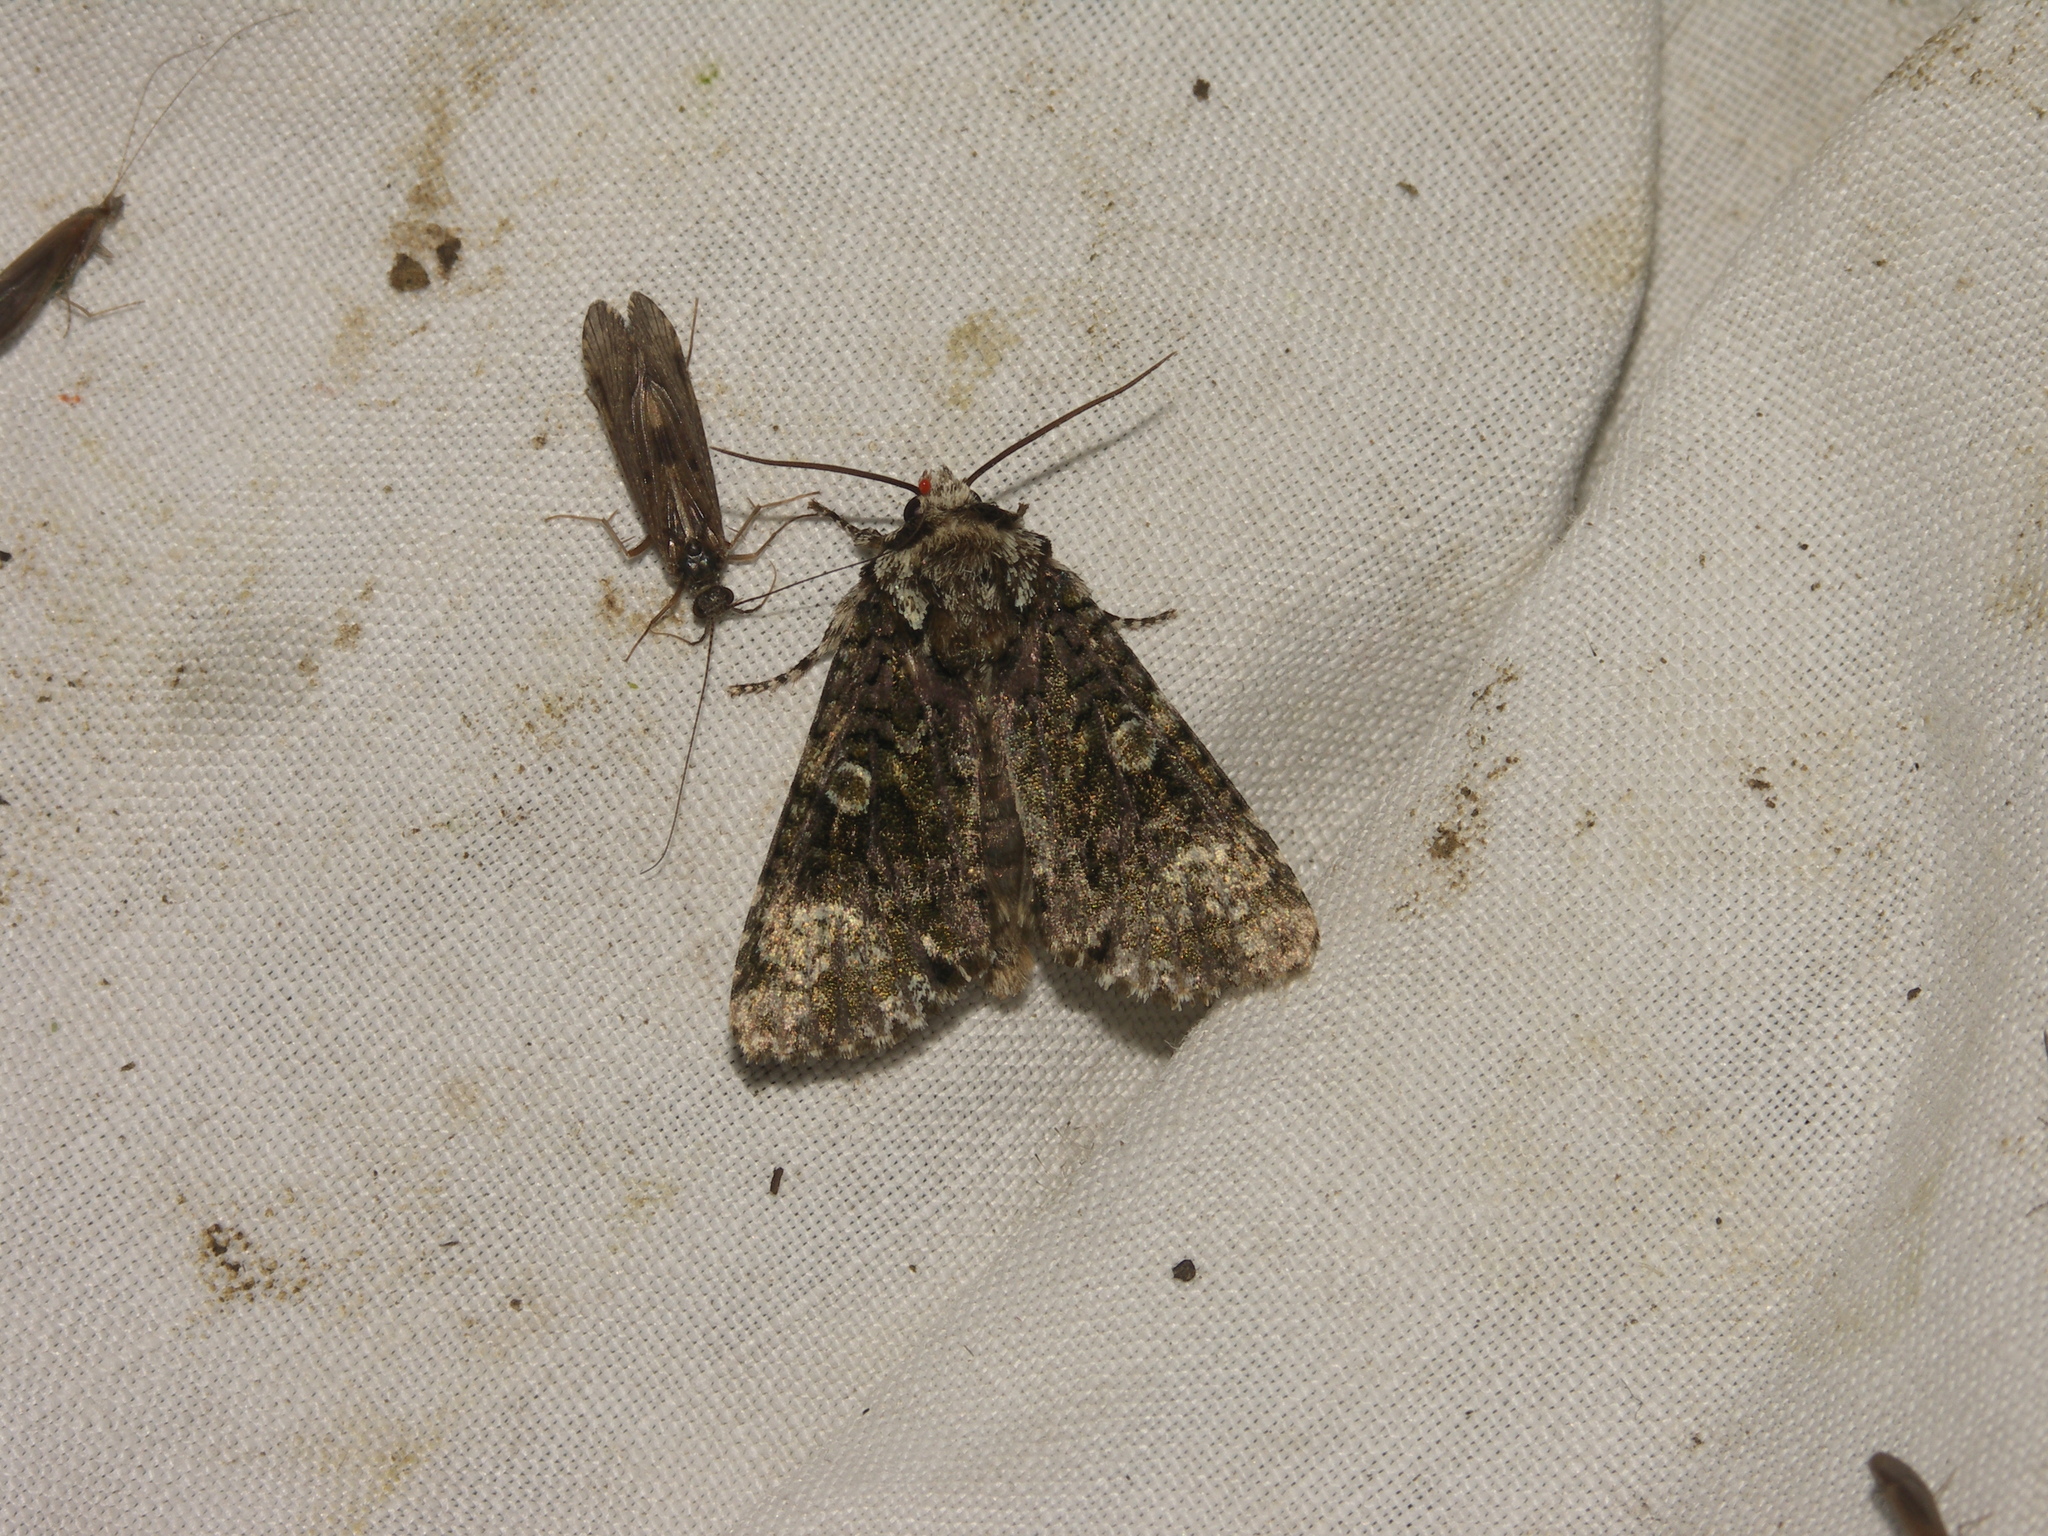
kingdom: Animalia
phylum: Arthropoda
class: Insecta
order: Lepidoptera
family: Noctuidae
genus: Craniophora
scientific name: Craniophora ligustri
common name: Coronet
